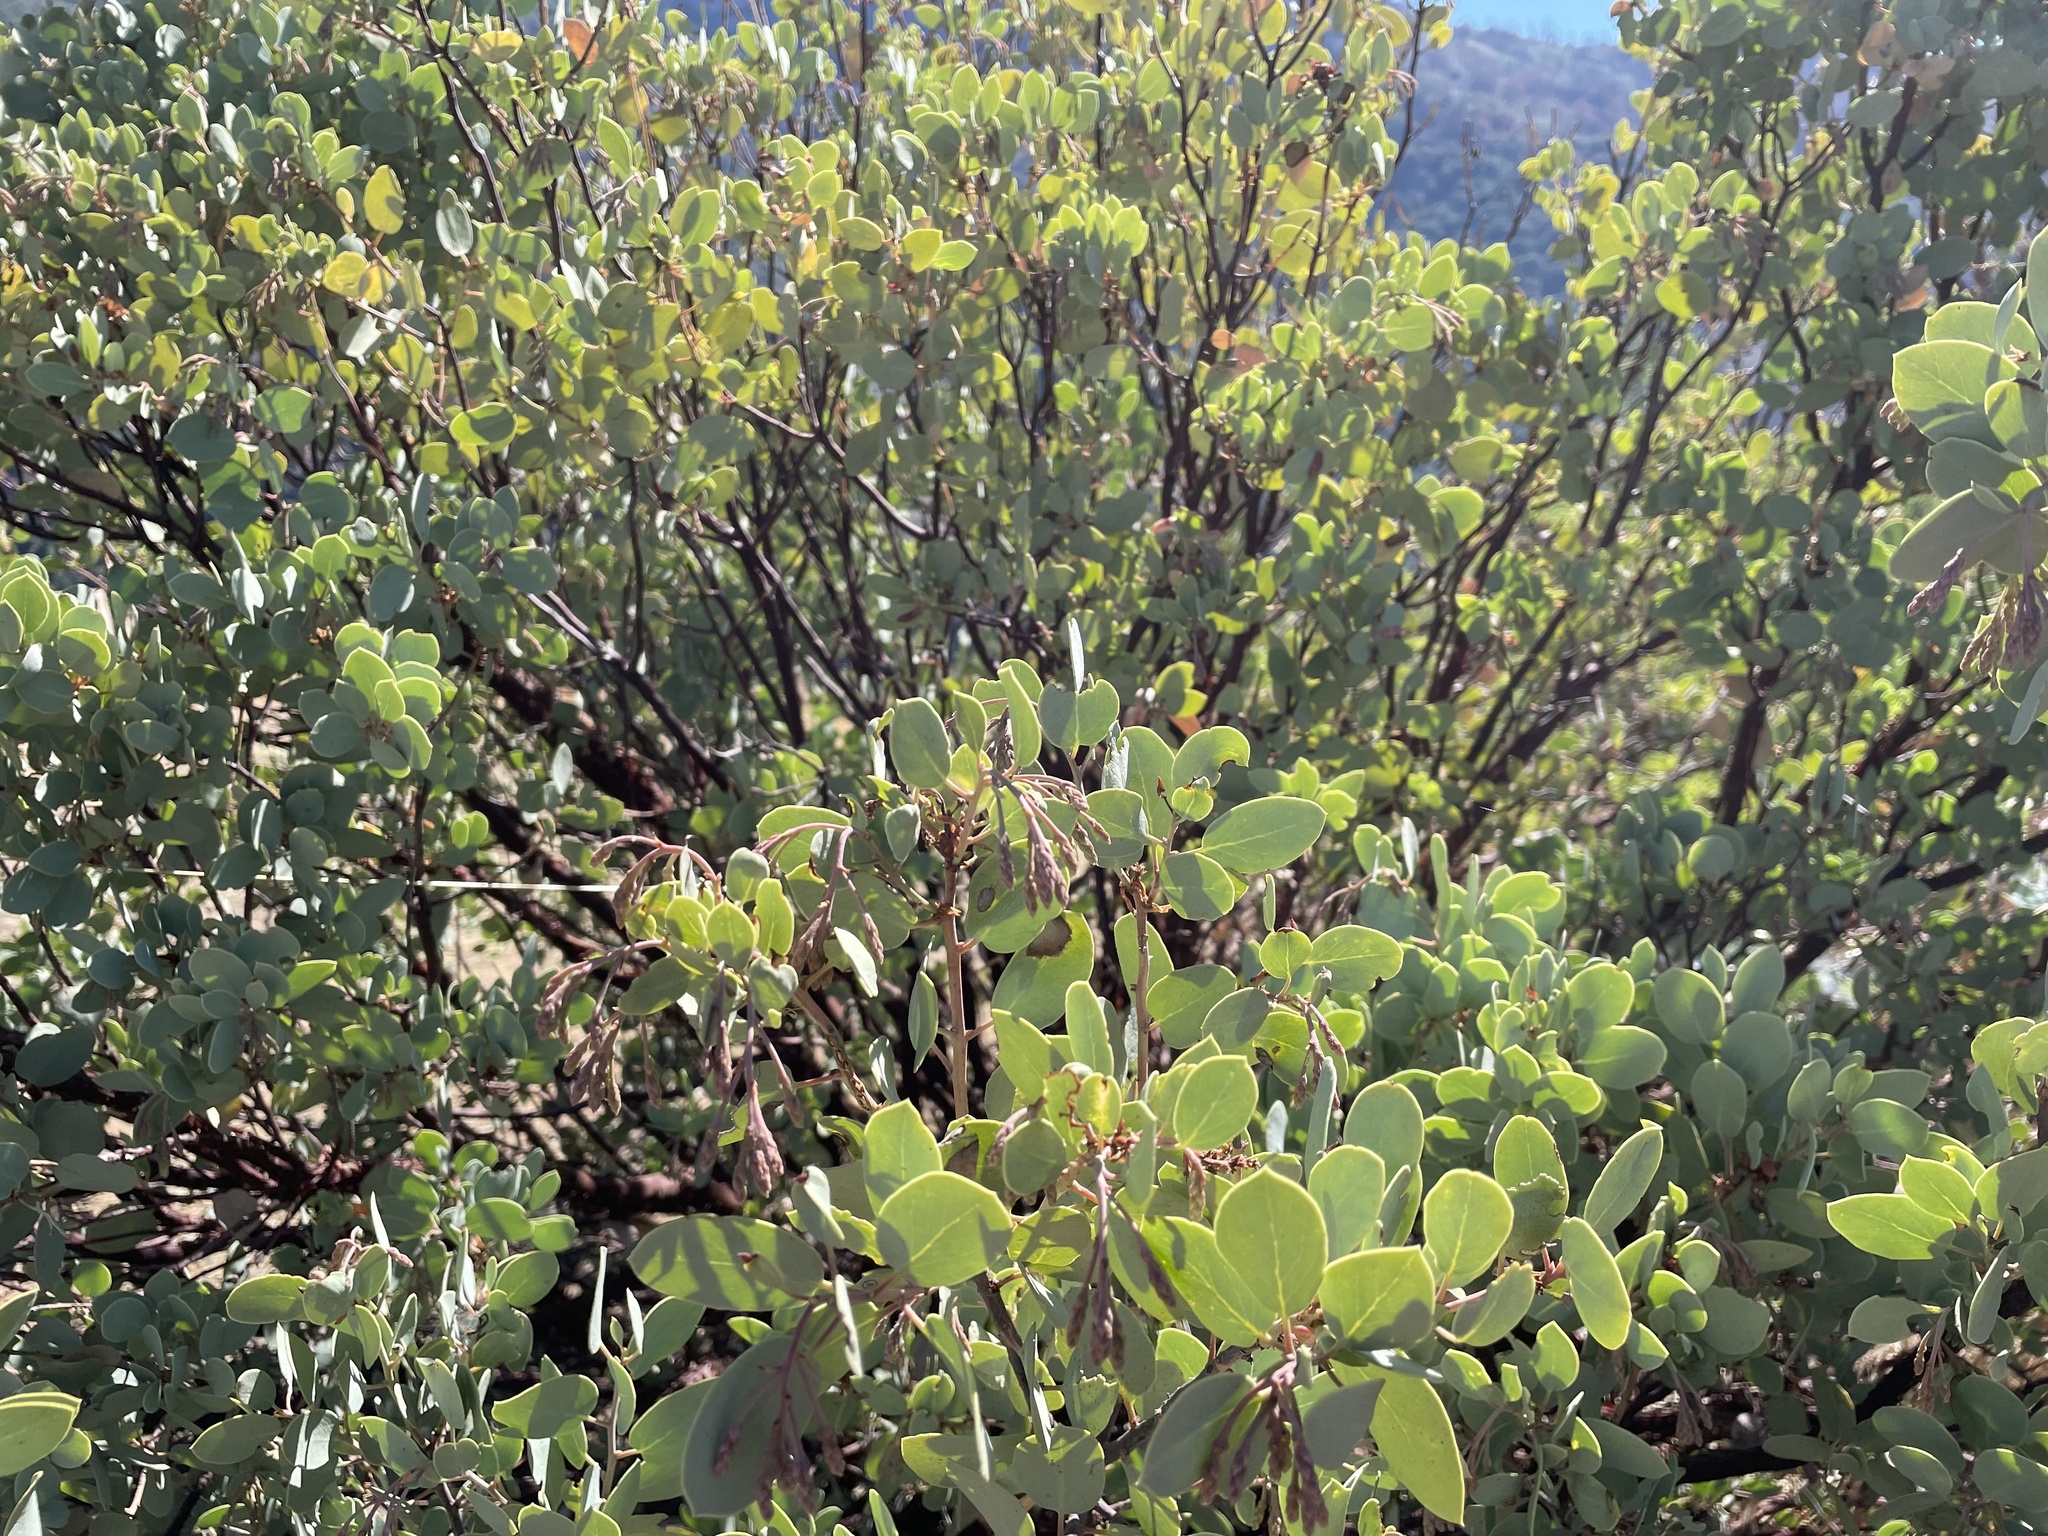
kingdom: Plantae
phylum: Tracheophyta
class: Magnoliopsida
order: Ericales
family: Ericaceae
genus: Arctostaphylos
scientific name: Arctostaphylos viscida
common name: White-leaf manzanita
